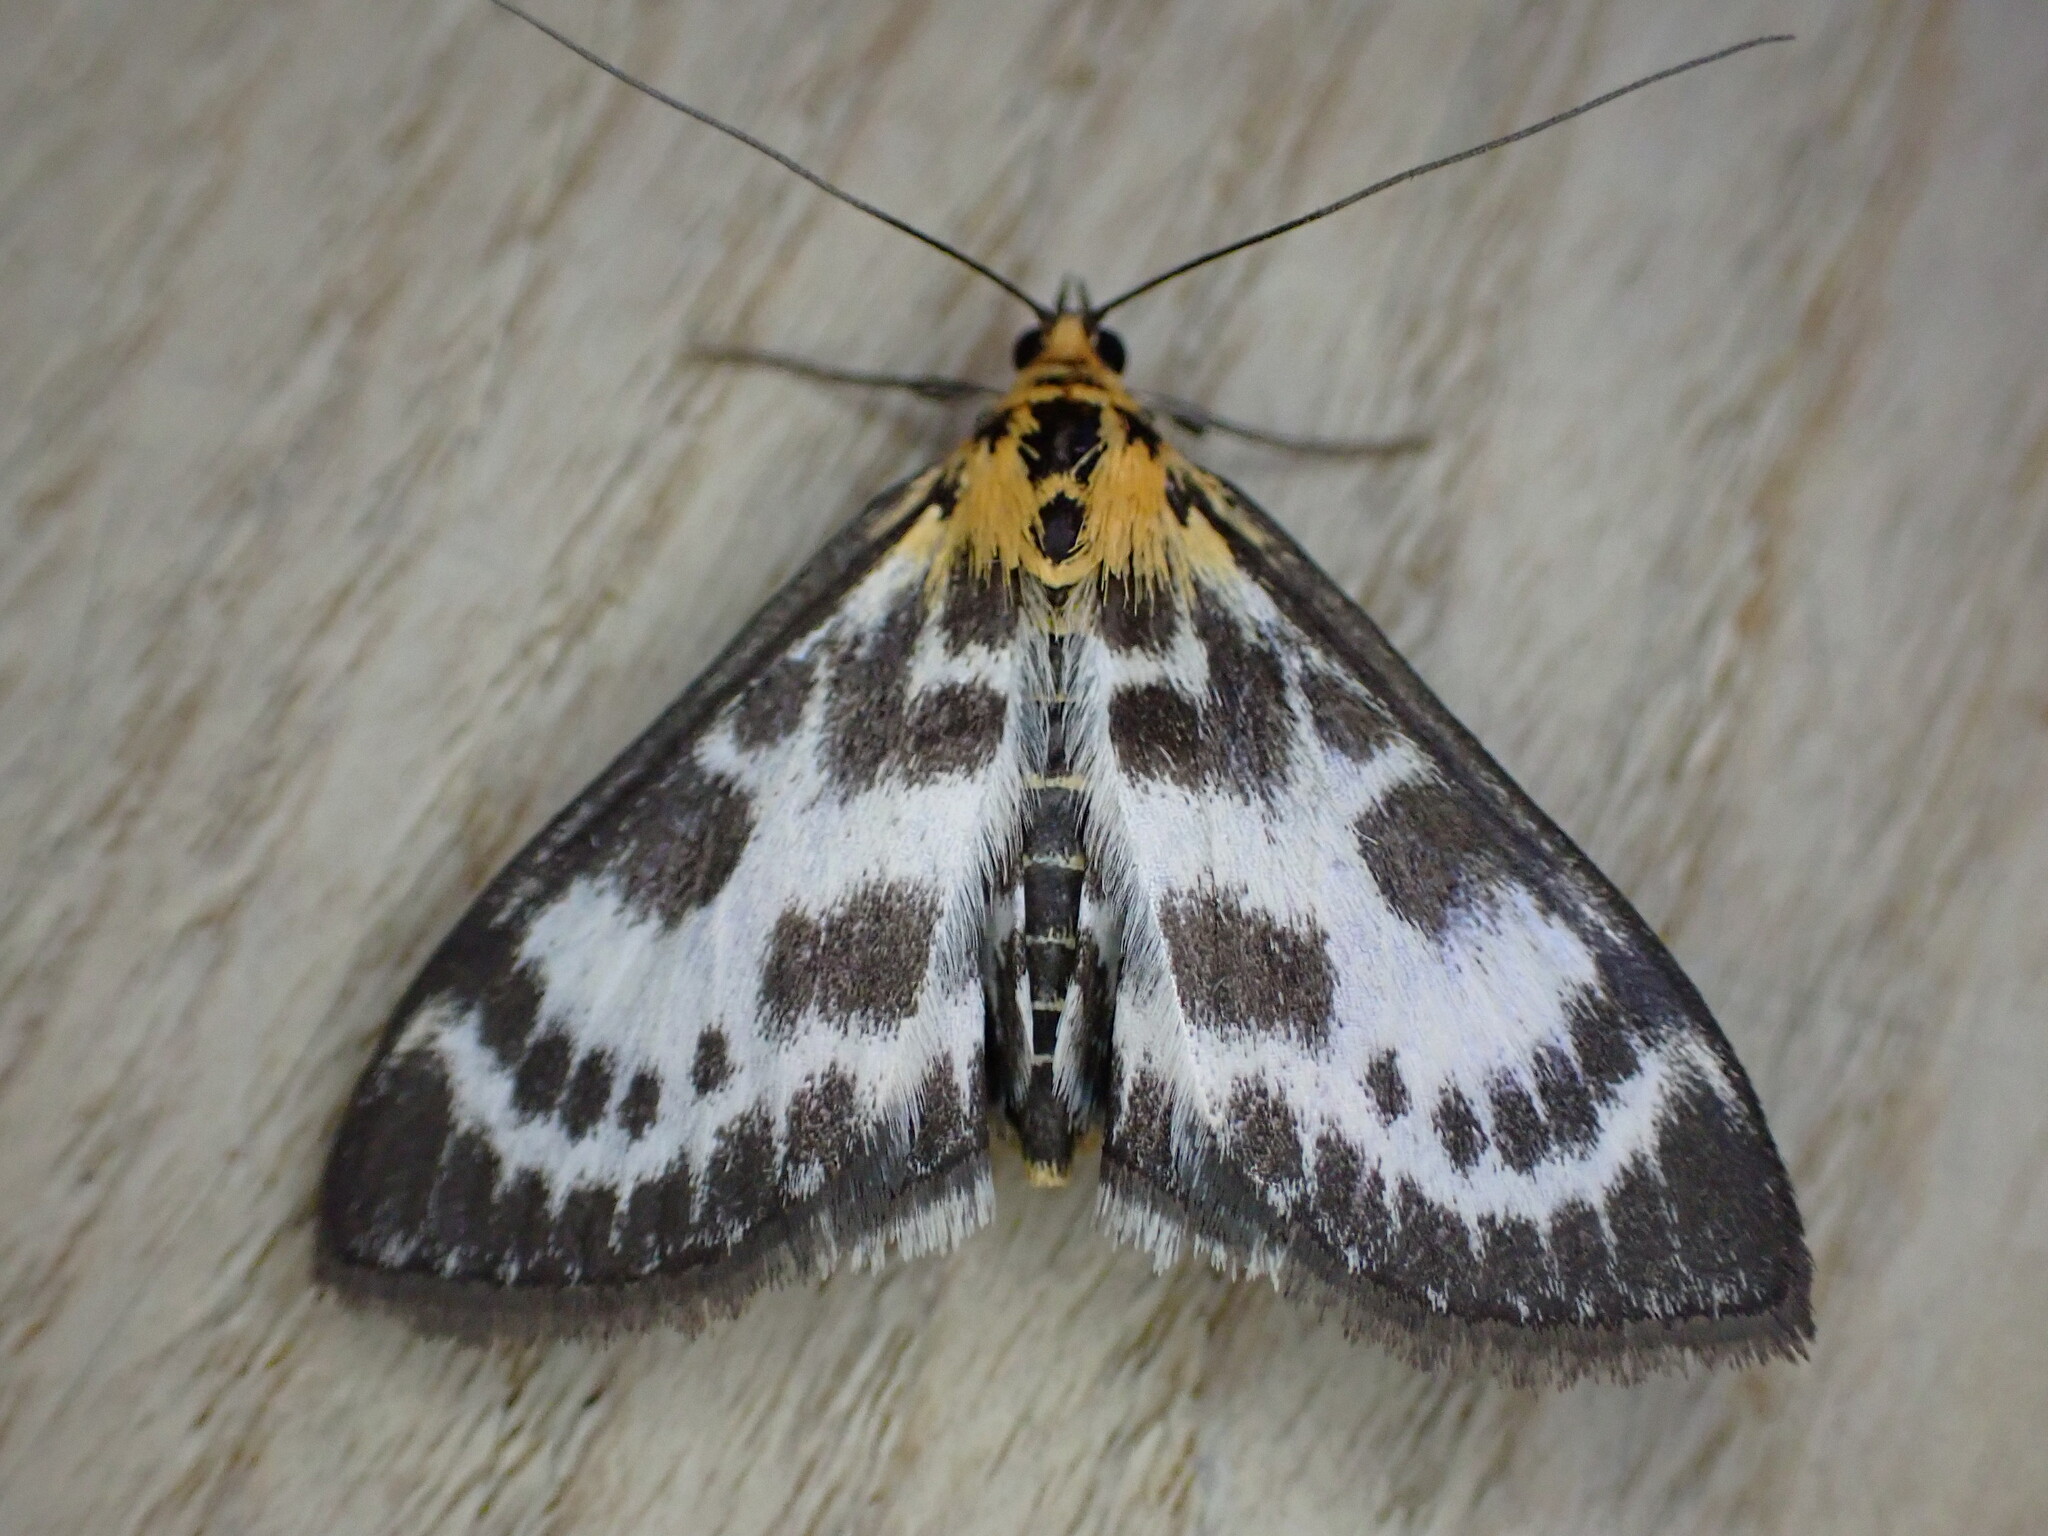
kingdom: Animalia
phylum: Arthropoda
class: Insecta
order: Lepidoptera
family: Crambidae
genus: Anania
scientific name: Anania hortulata
